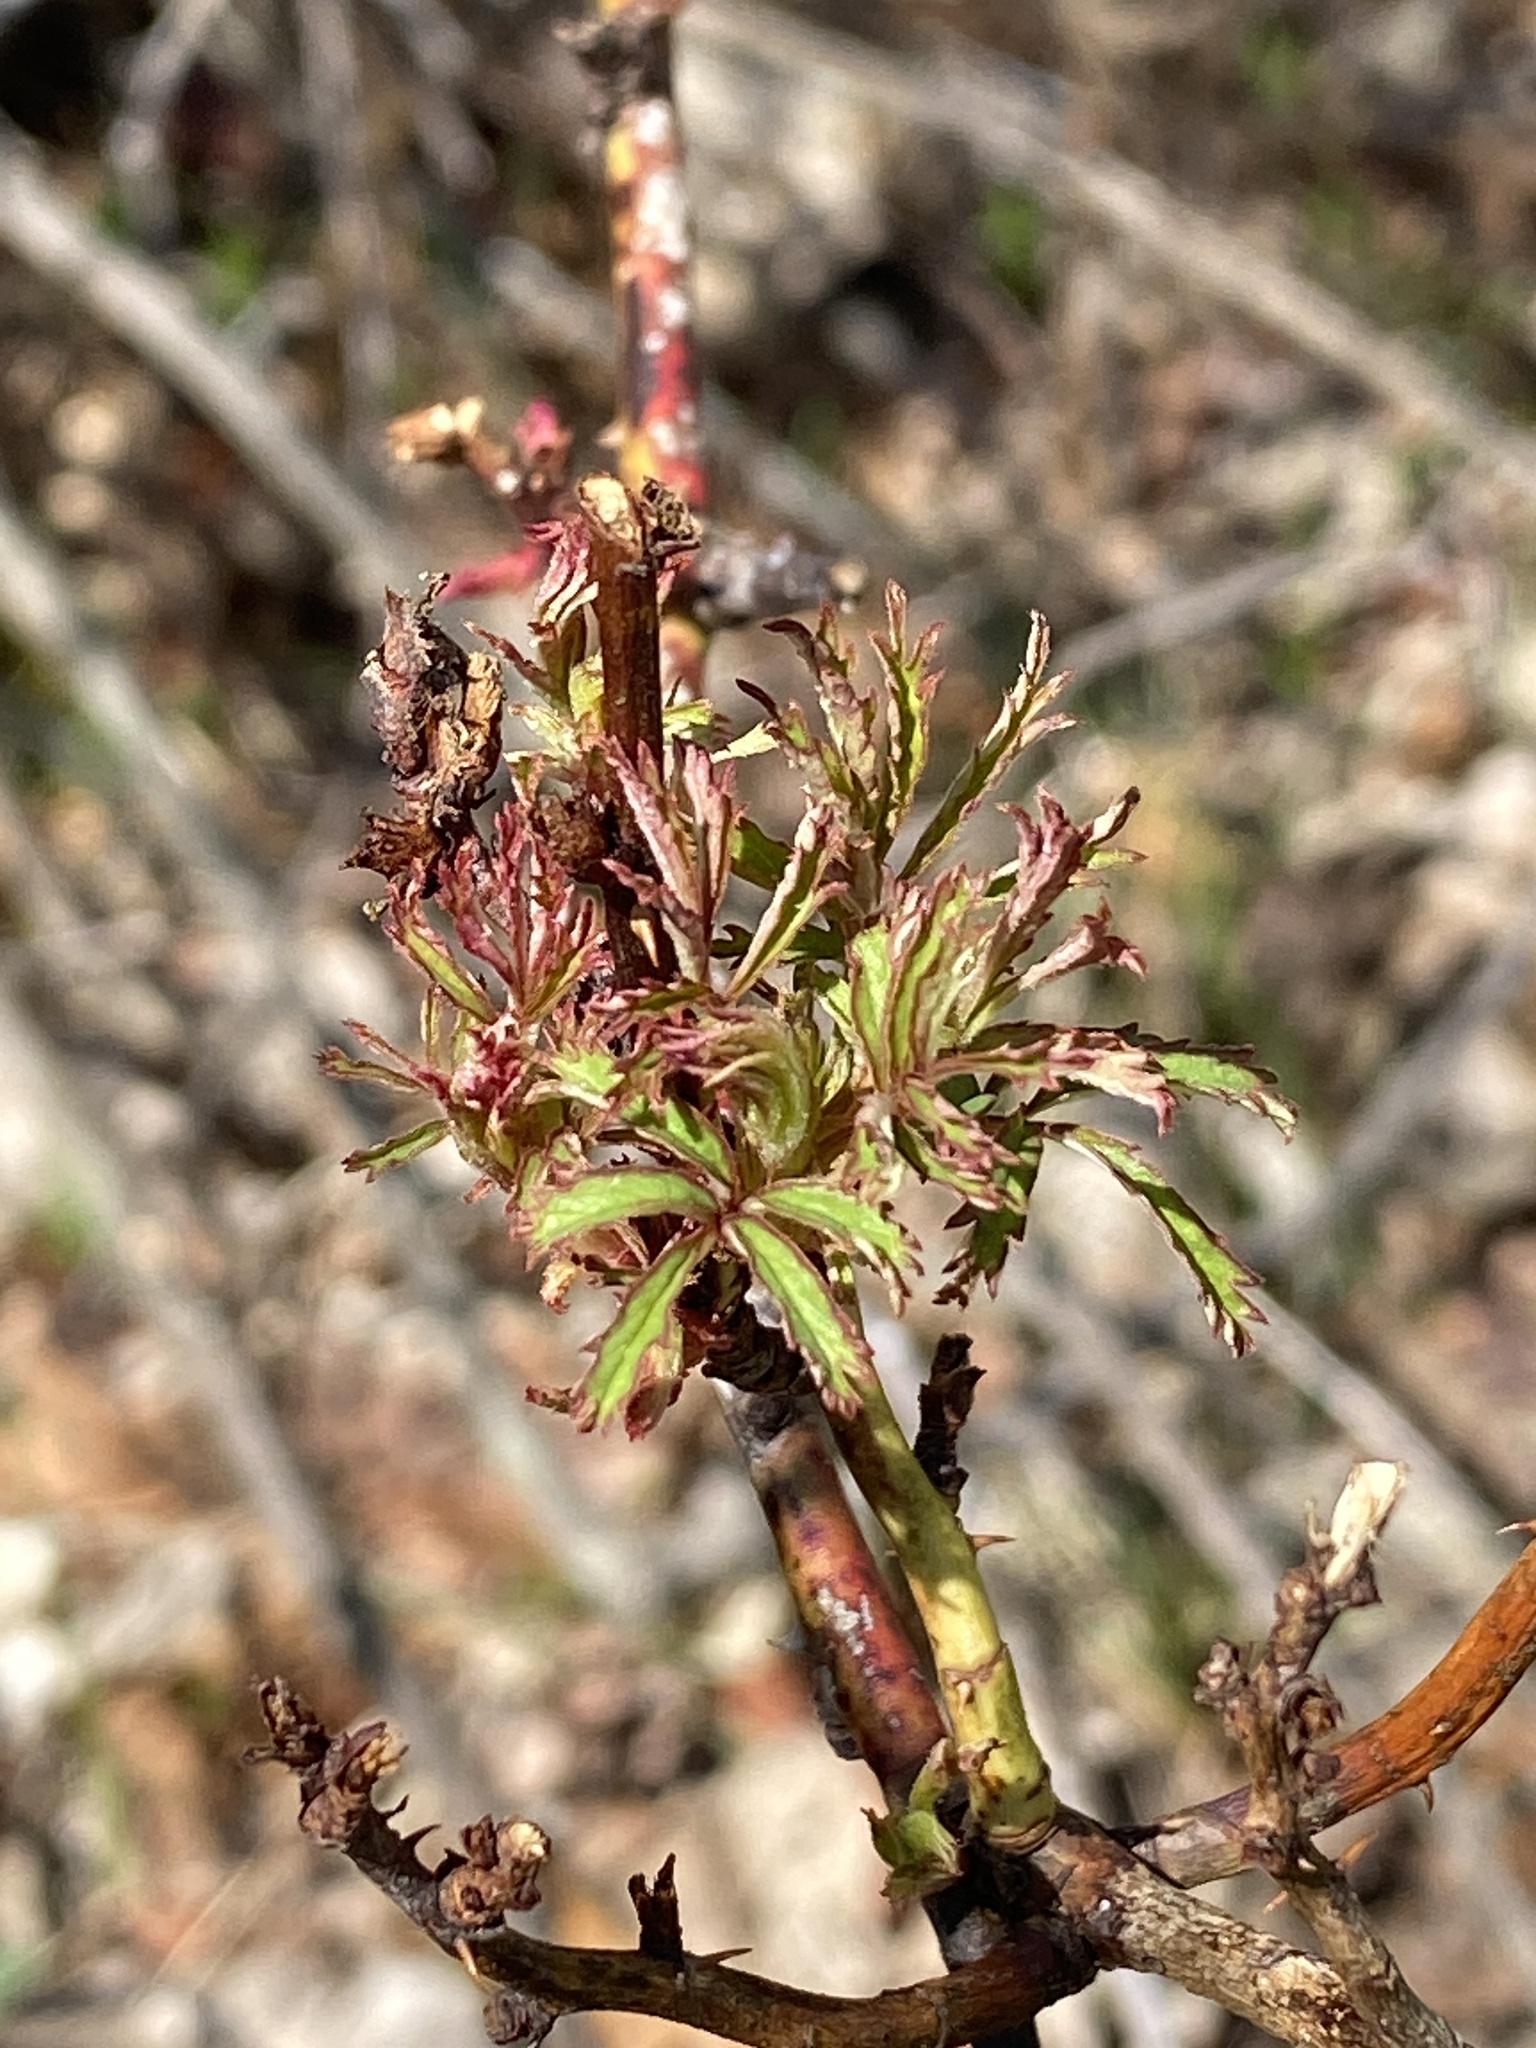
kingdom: Viruses
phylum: Negarnaviricota
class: Ellioviricetes
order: Bunyavirales
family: Fimoviridae
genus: Emaravirus
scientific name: Emaravirus rosae
